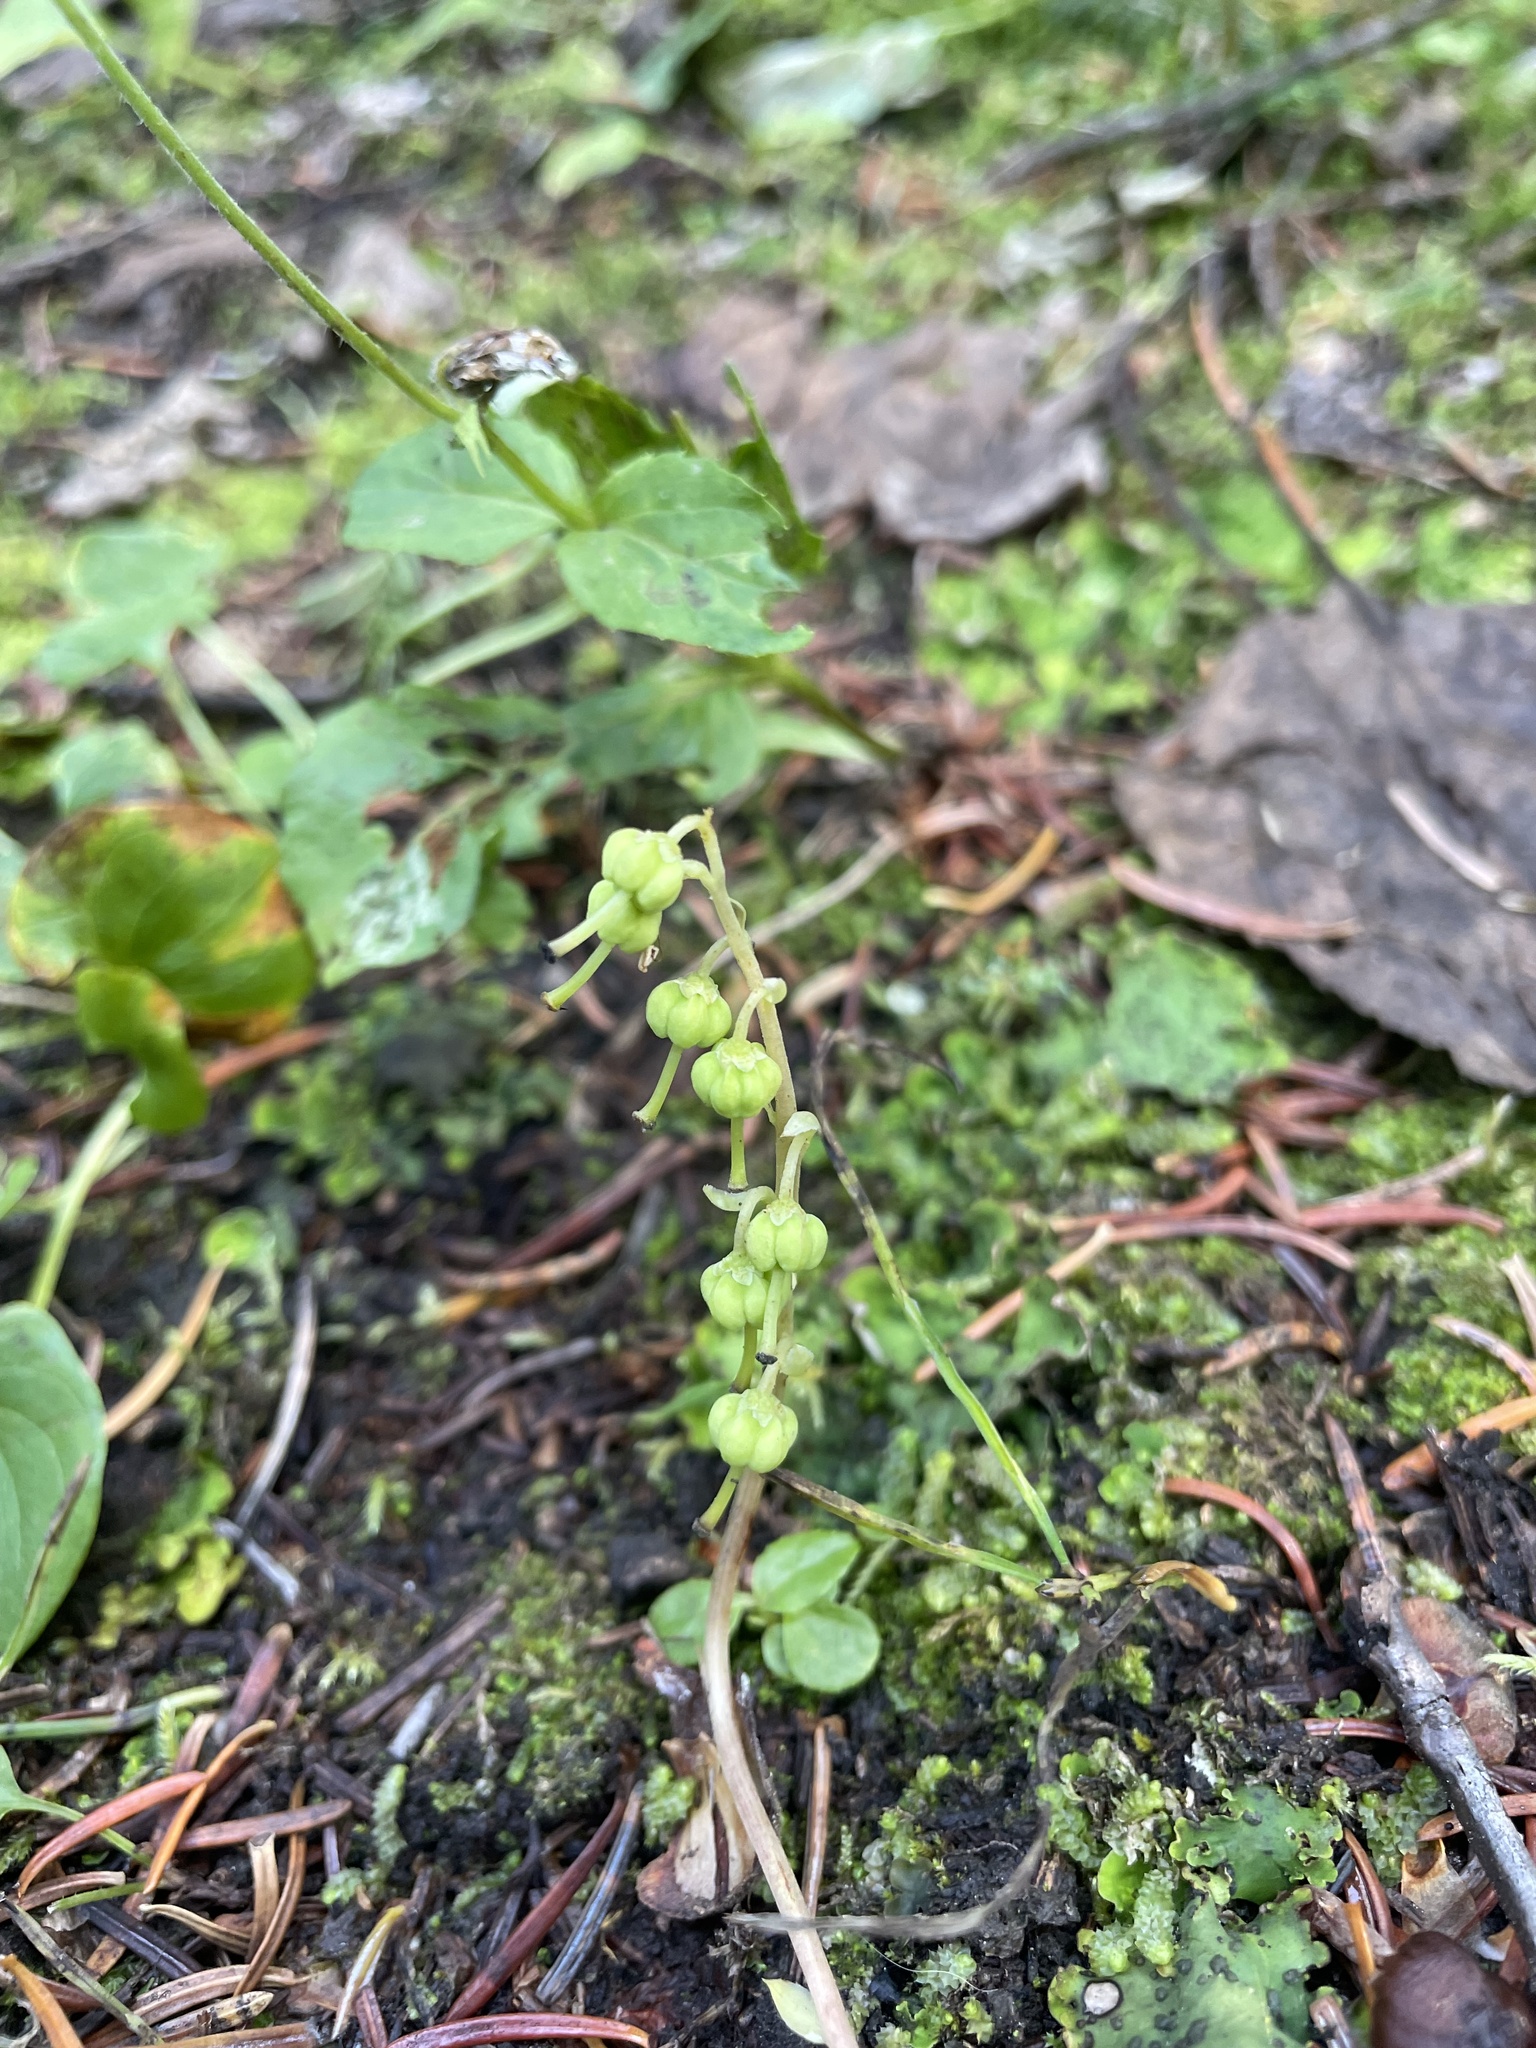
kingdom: Plantae
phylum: Tracheophyta
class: Magnoliopsida
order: Ericales
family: Ericaceae
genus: Orthilia
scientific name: Orthilia secunda
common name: One-sided orthilia
